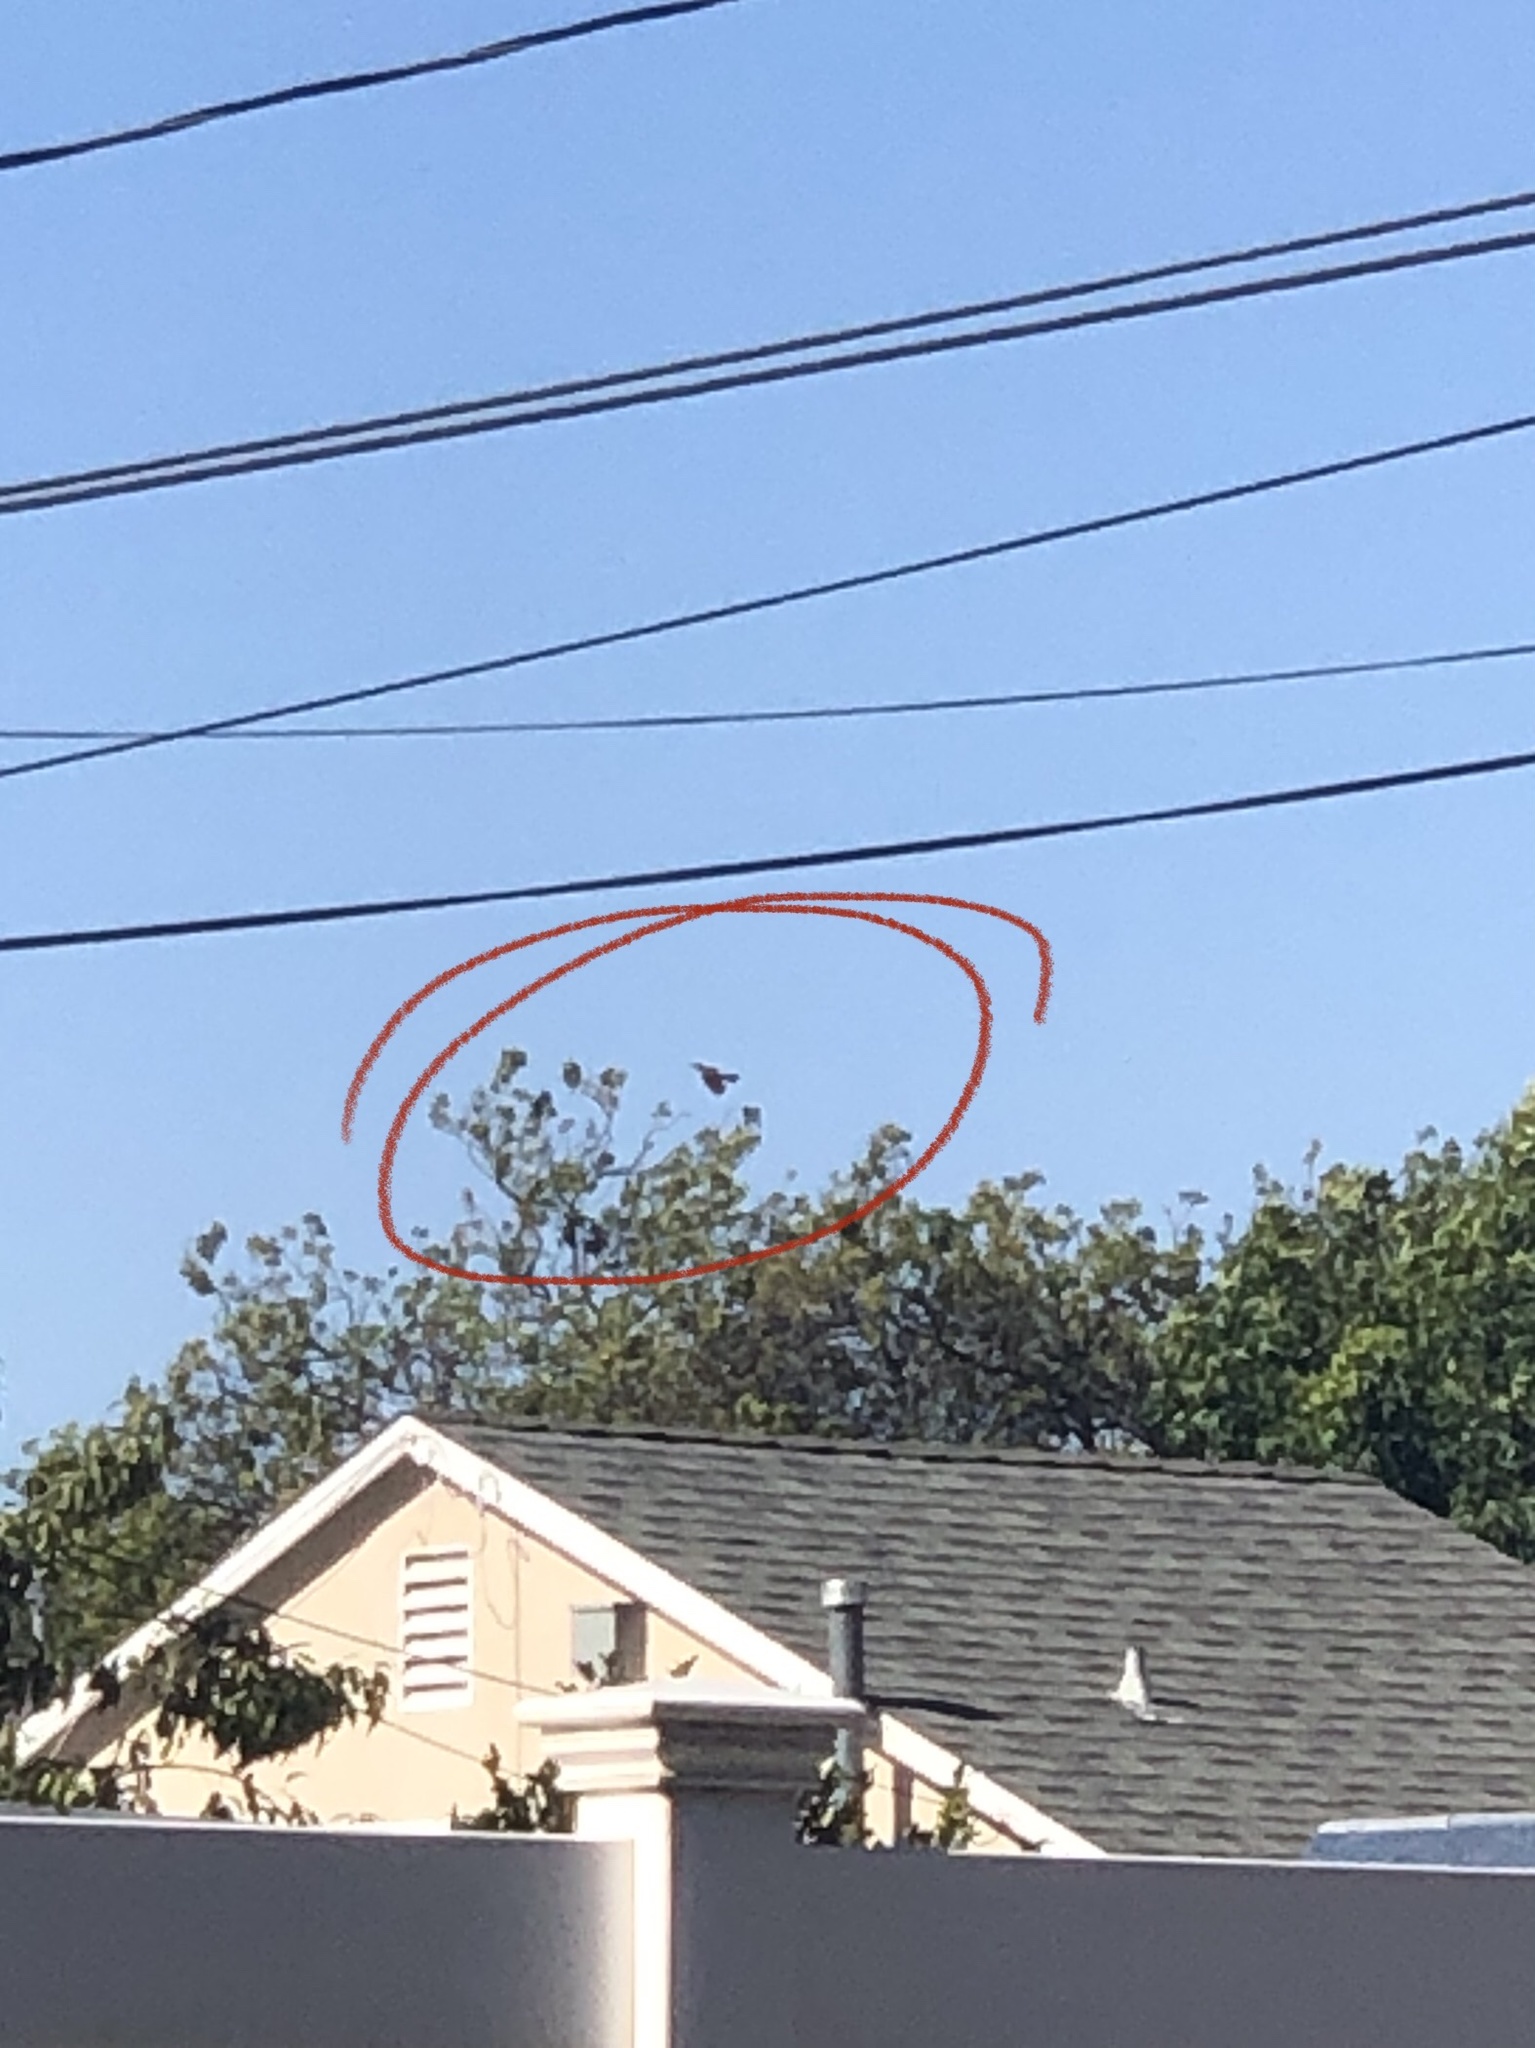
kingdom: Animalia
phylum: Chordata
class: Aves
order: Piciformes
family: Picidae
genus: Colaptes
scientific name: Colaptes auratus
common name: Northern flicker
